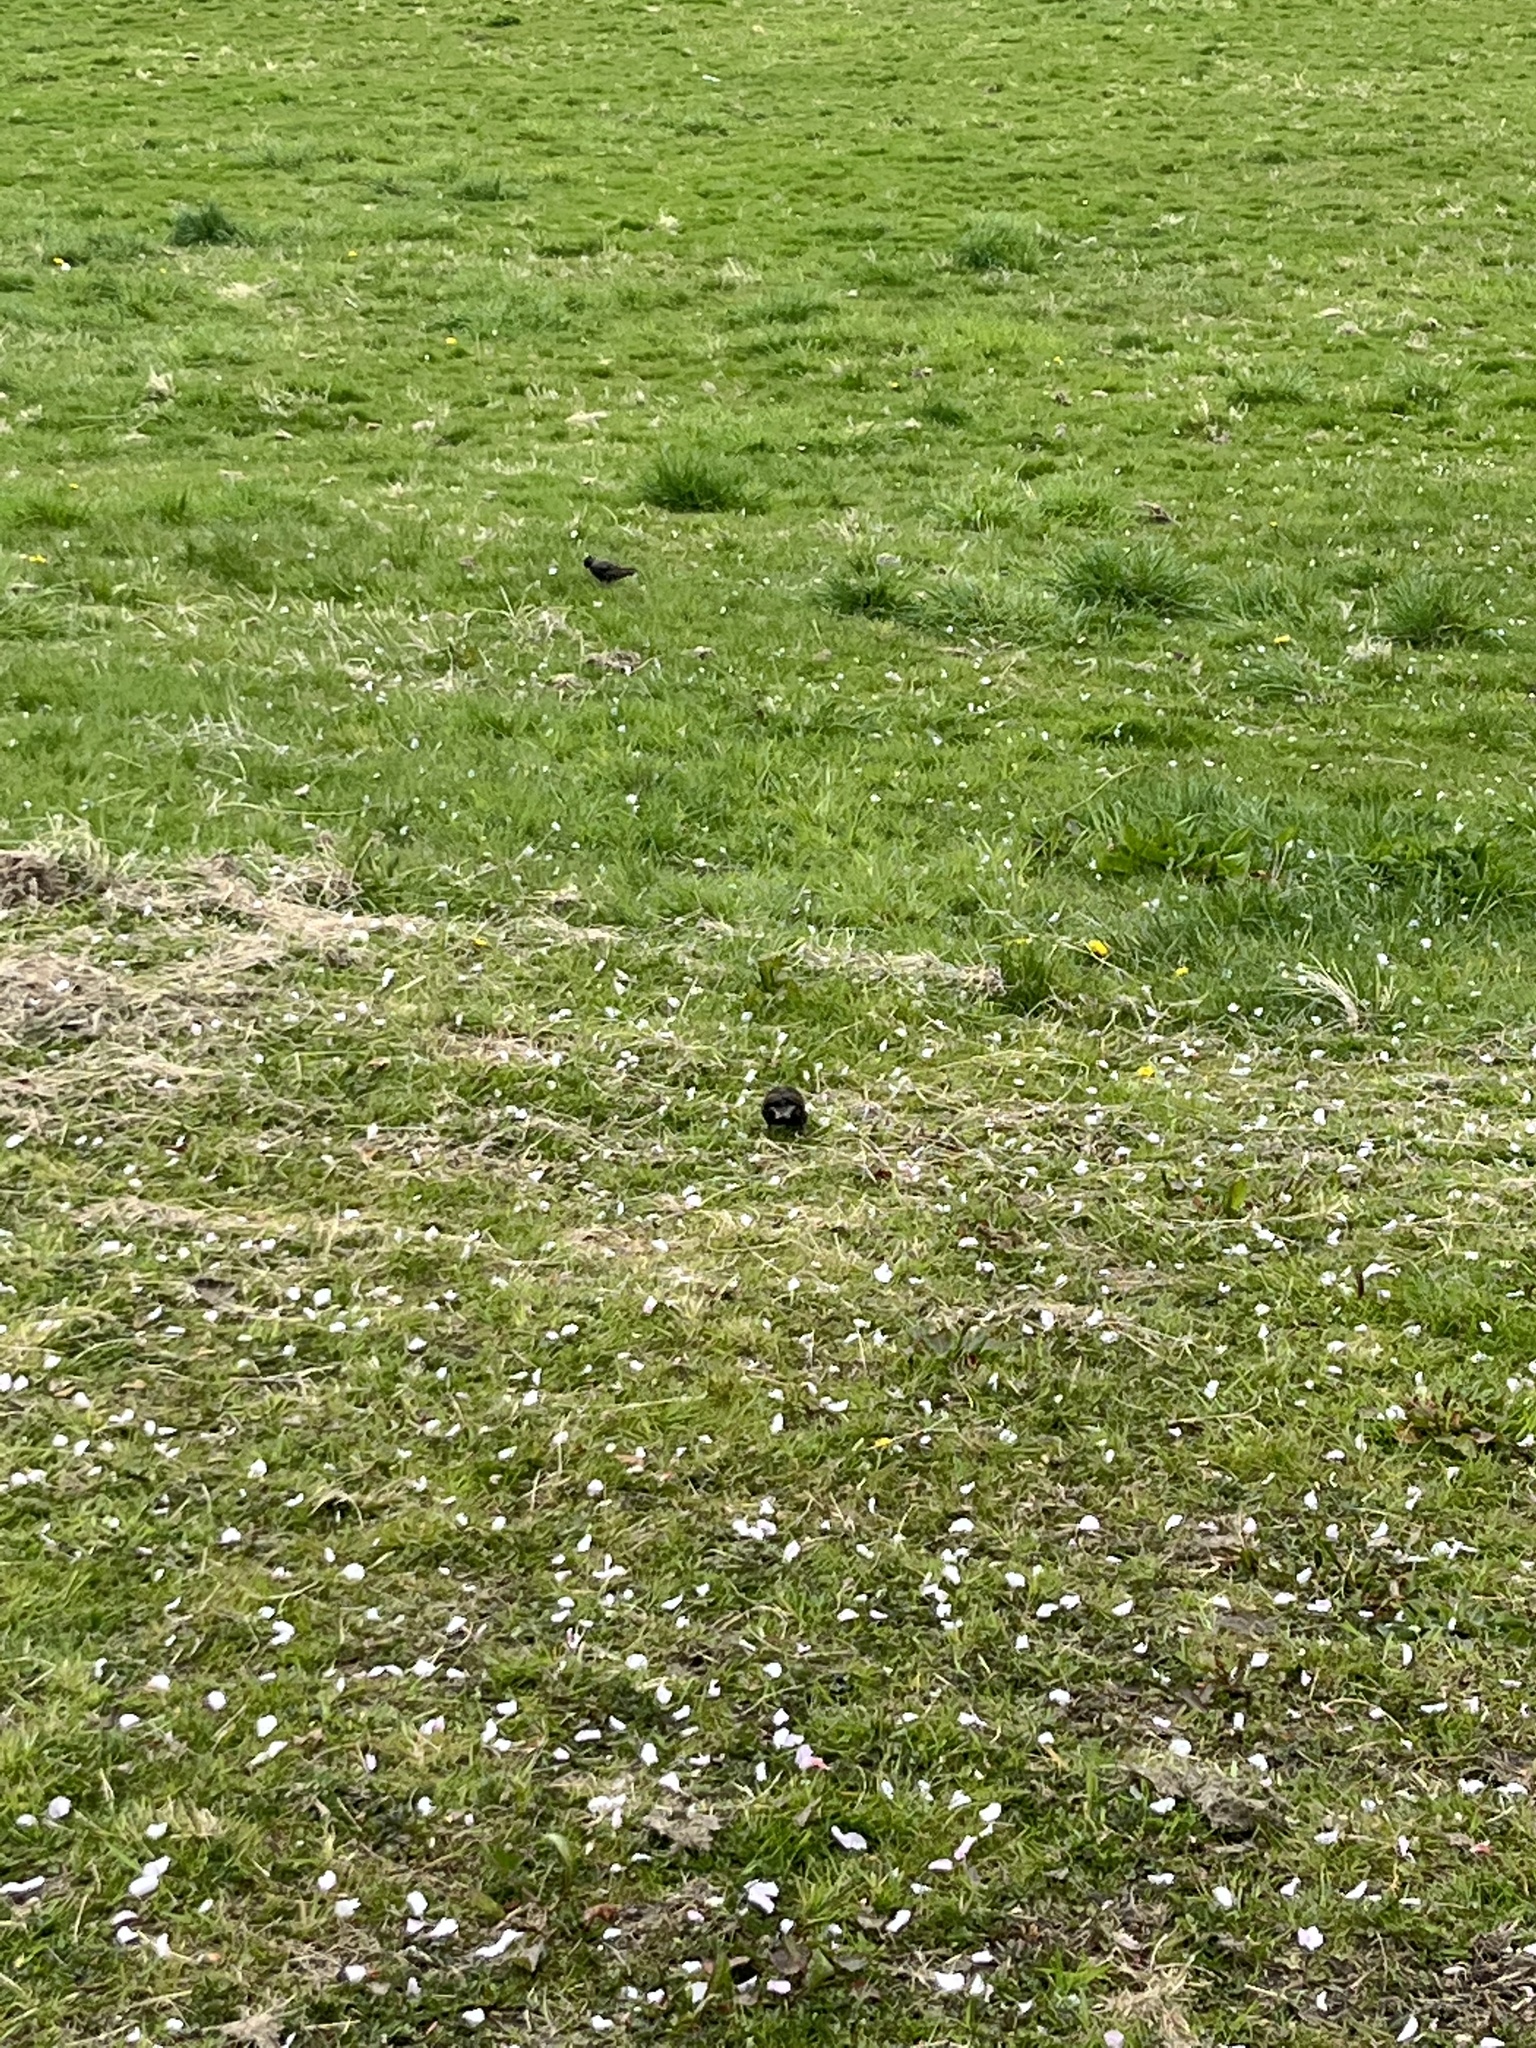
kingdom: Animalia
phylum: Chordata
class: Aves
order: Passeriformes
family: Sturnidae
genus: Sturnus
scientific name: Sturnus vulgaris
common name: Common starling
